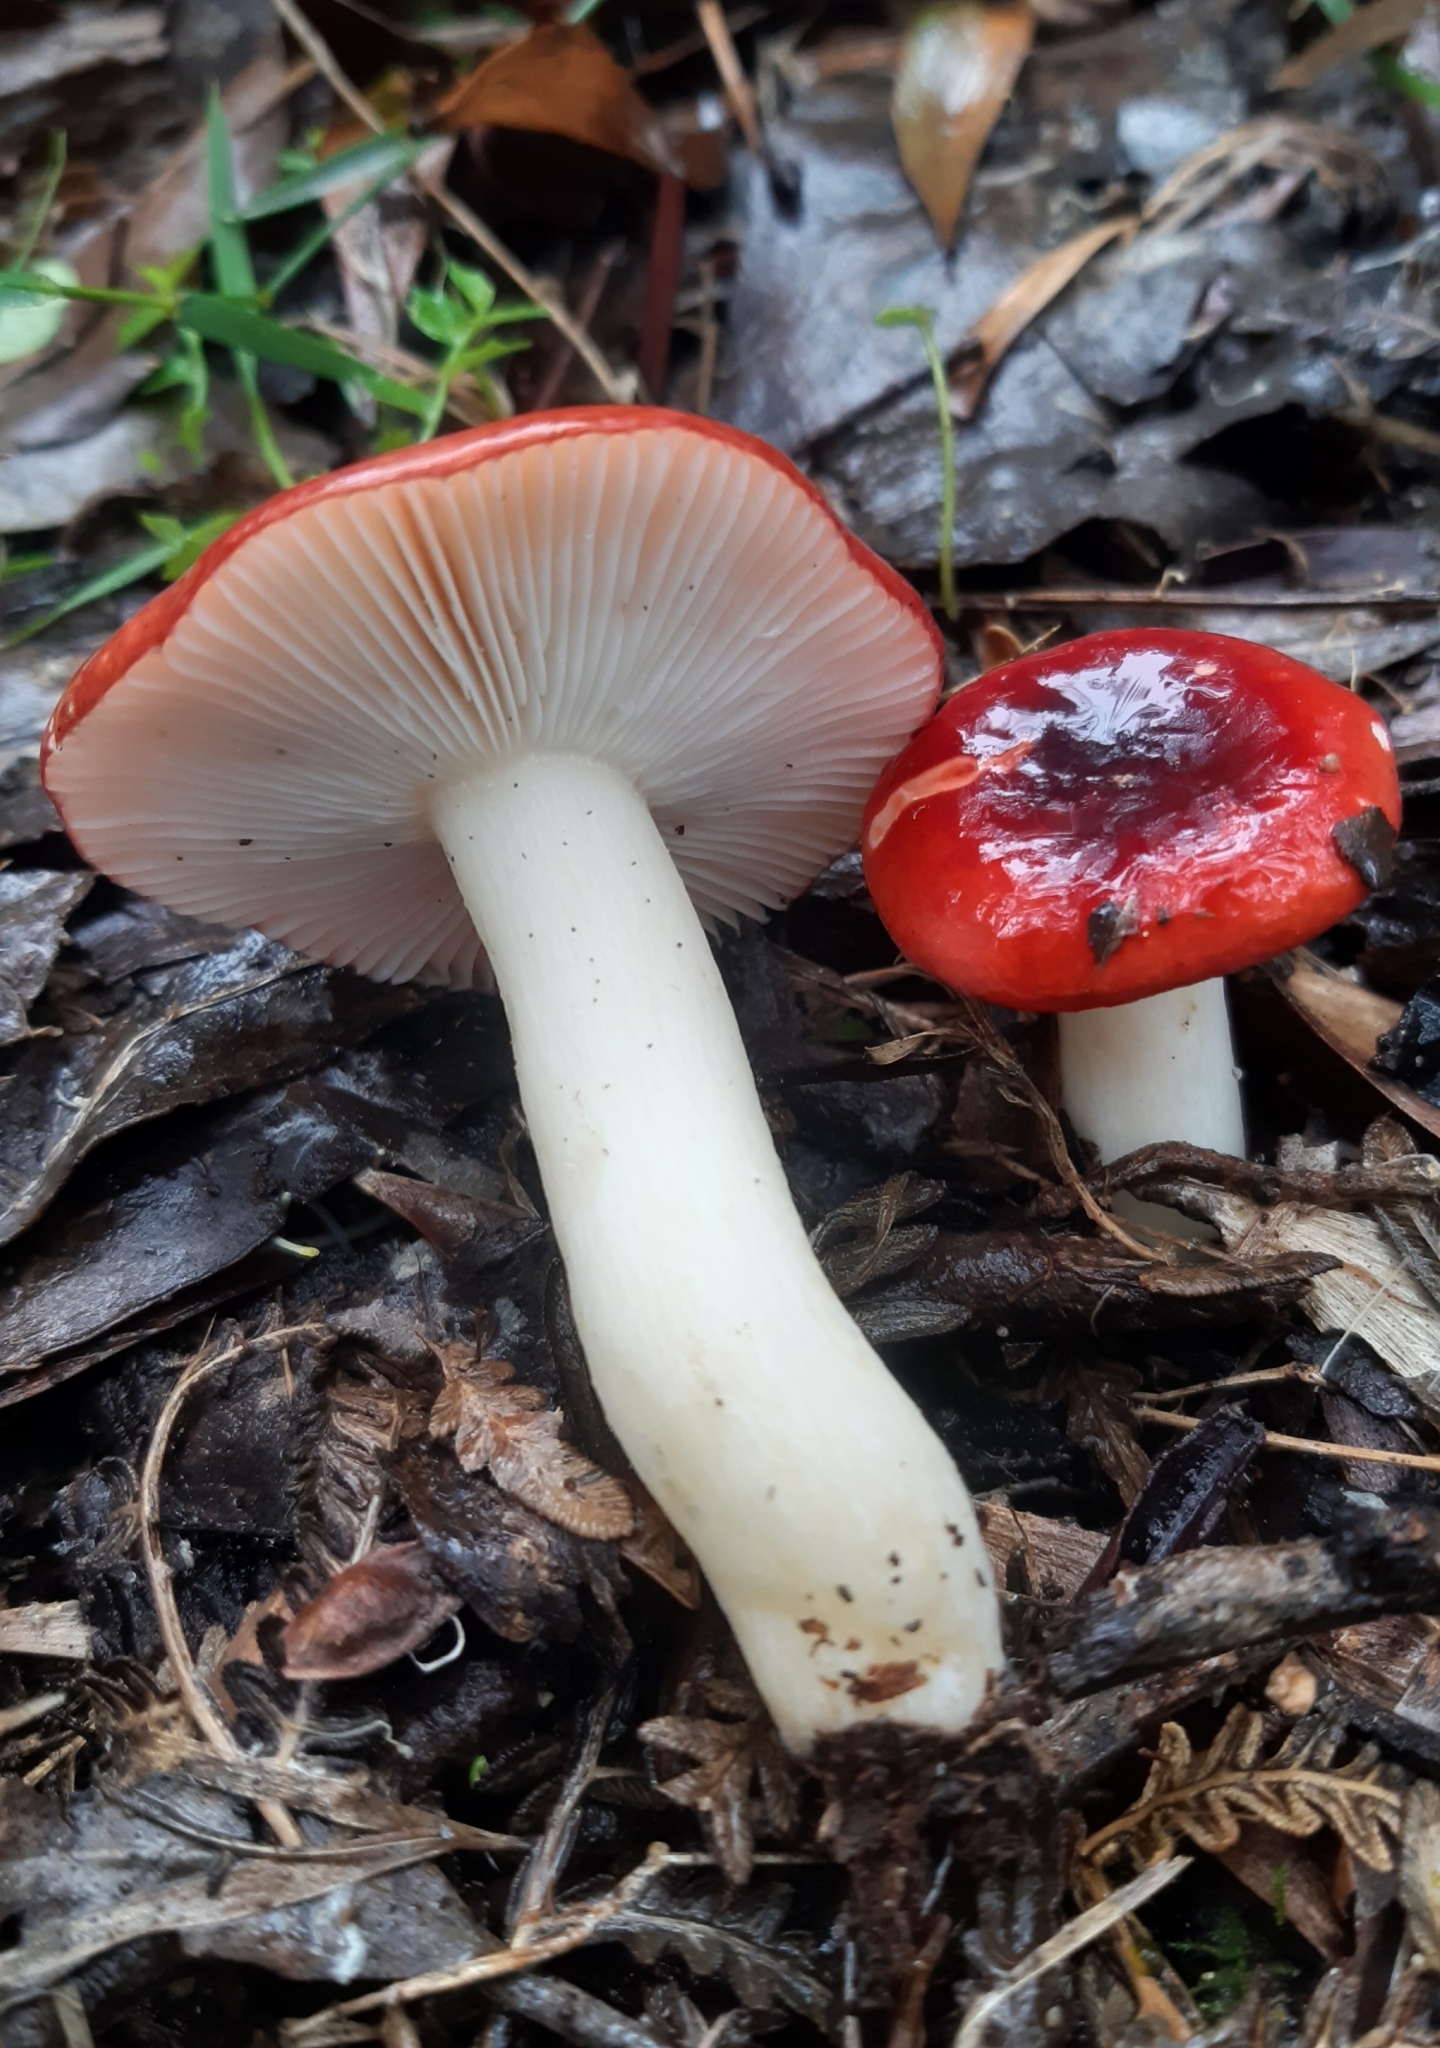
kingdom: Fungi
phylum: Basidiomycota
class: Agaricomycetes
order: Russulales
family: Russulaceae
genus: Russula
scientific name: Russula persanguinea
